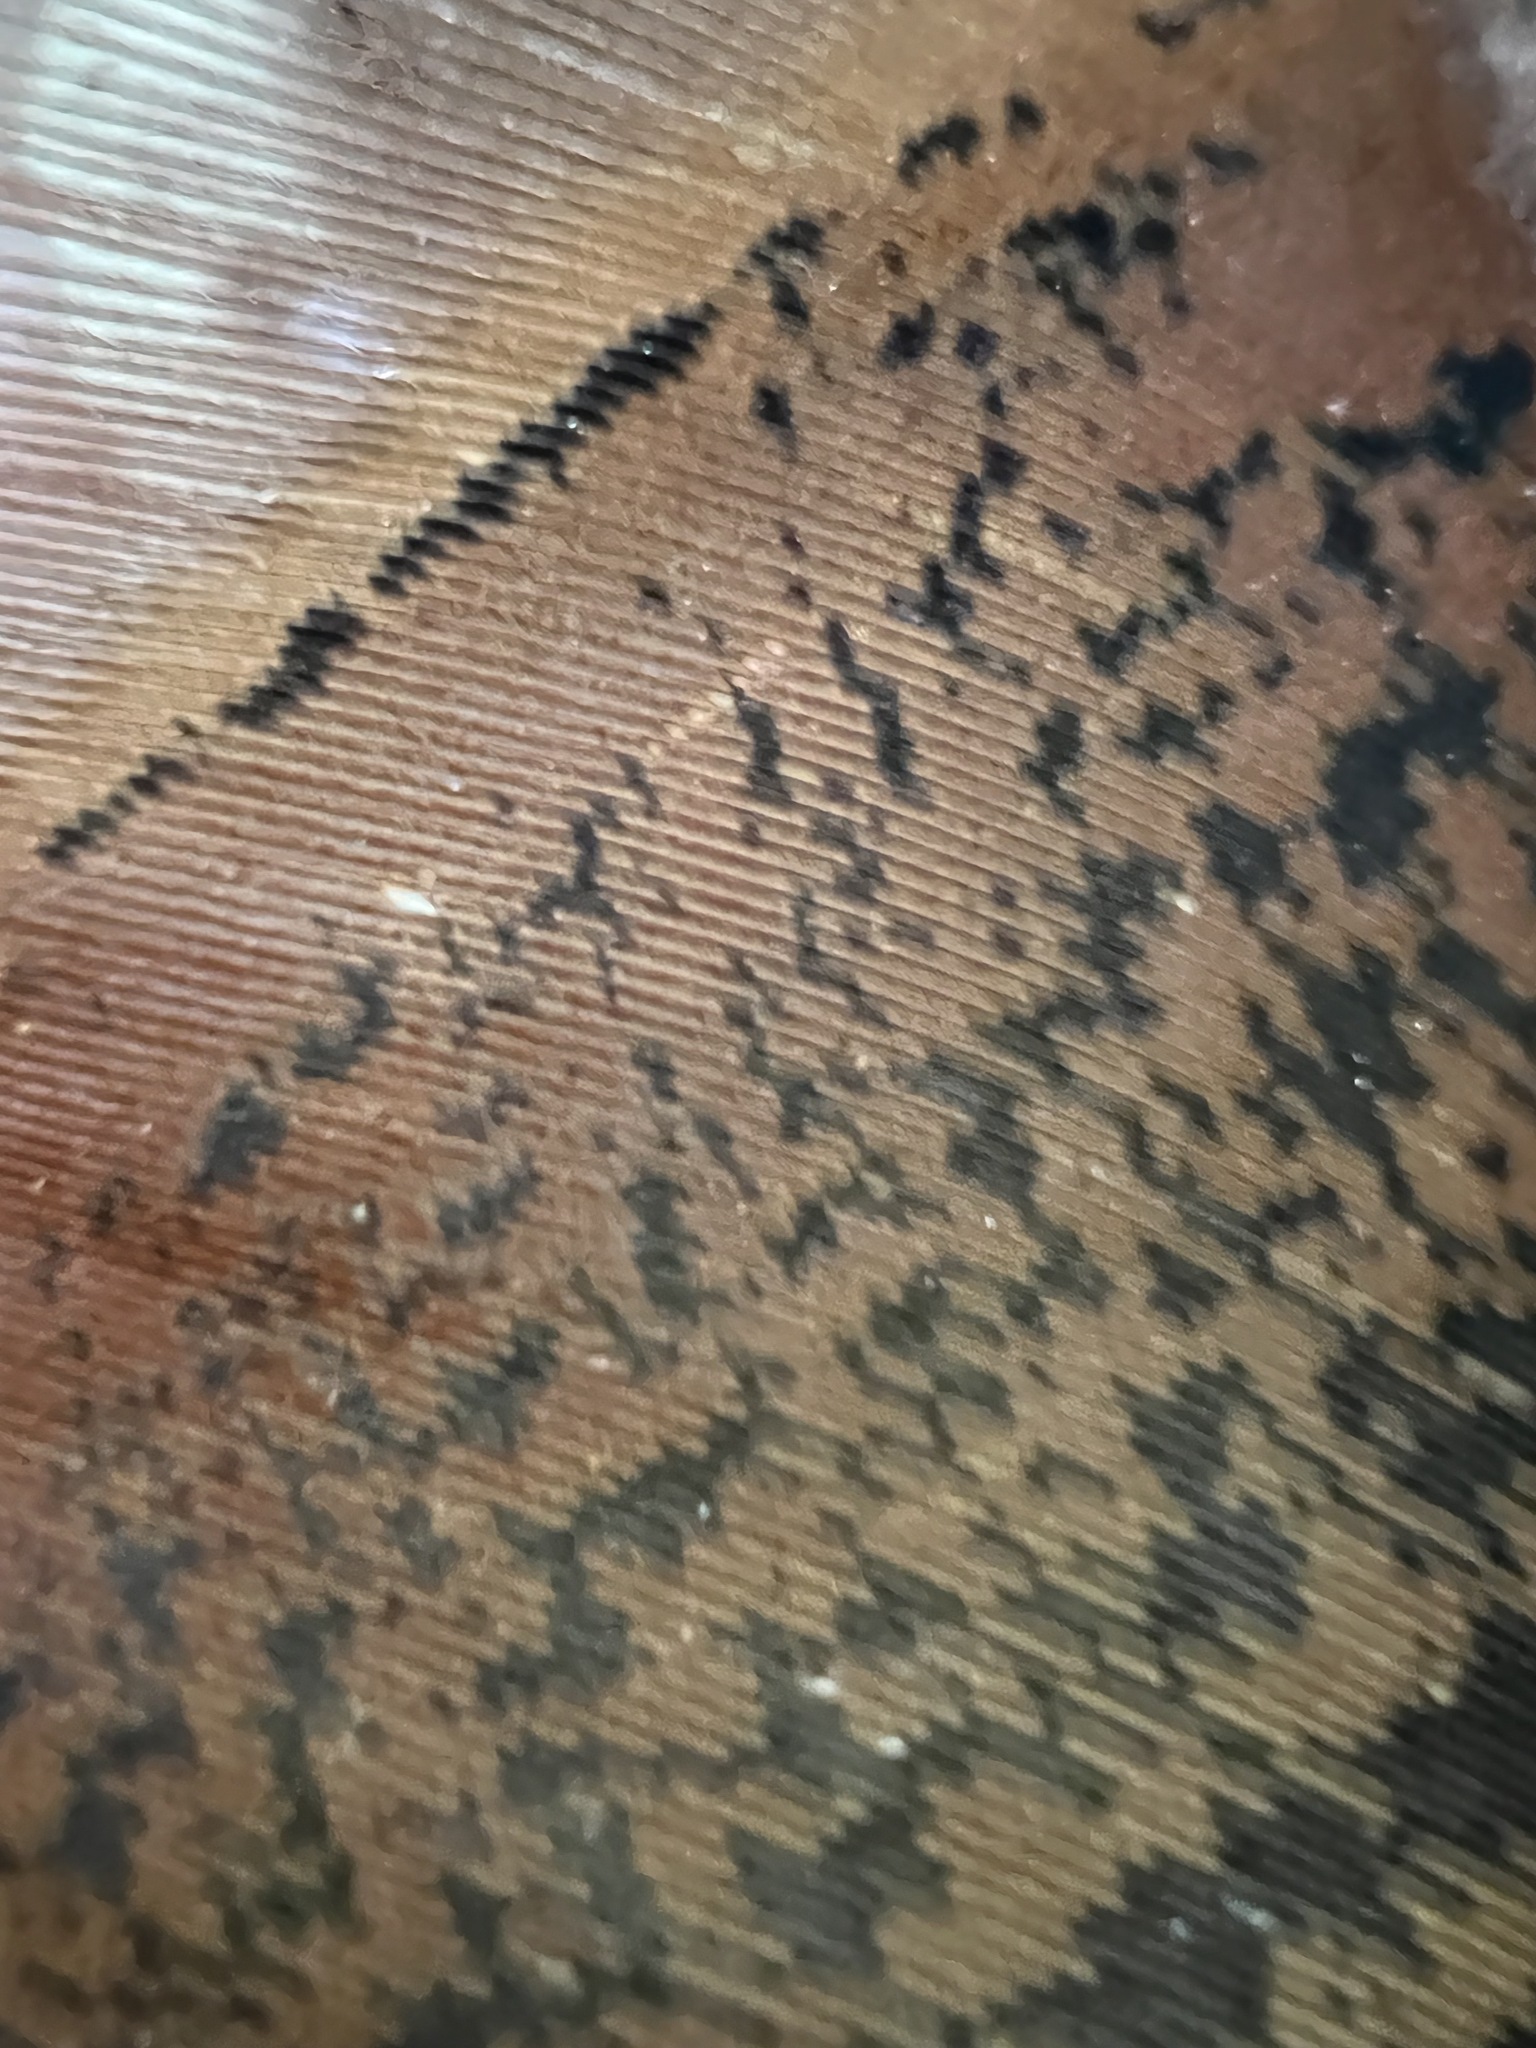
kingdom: Animalia
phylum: Chordata
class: Aves
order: Galliformes
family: Phasianidae
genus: Meleagris
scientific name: Meleagris gallopavo
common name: Wild turkey
